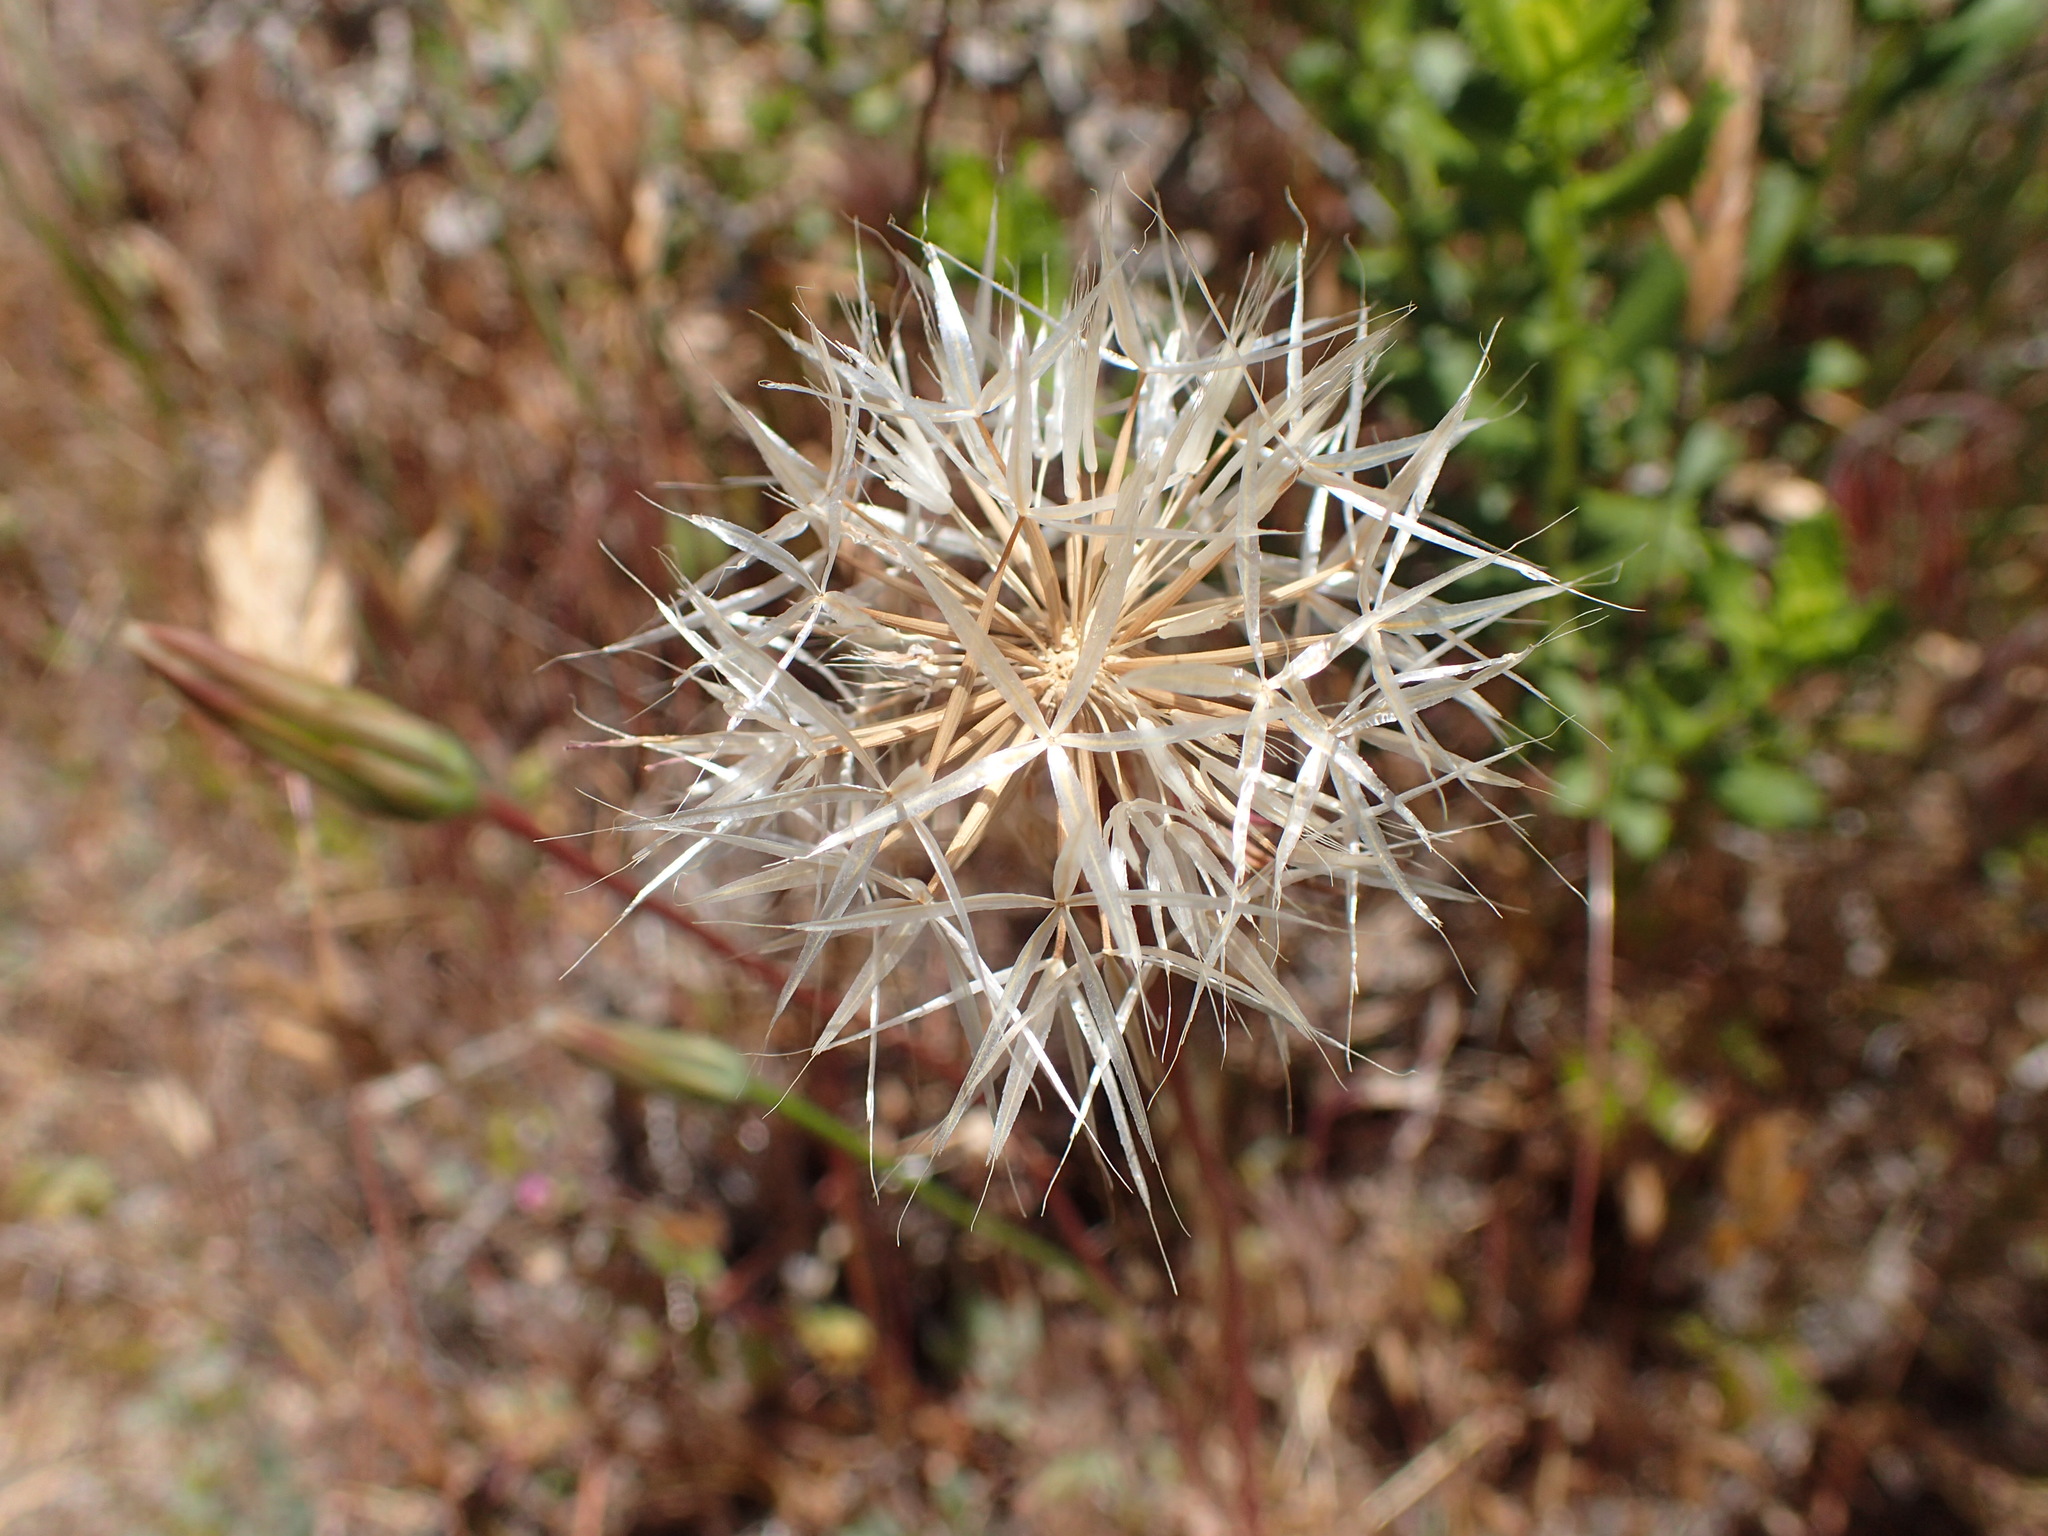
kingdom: Plantae
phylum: Tracheophyta
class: Magnoliopsida
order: Asterales
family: Asteraceae
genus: Microseris
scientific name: Microseris lindleyi
